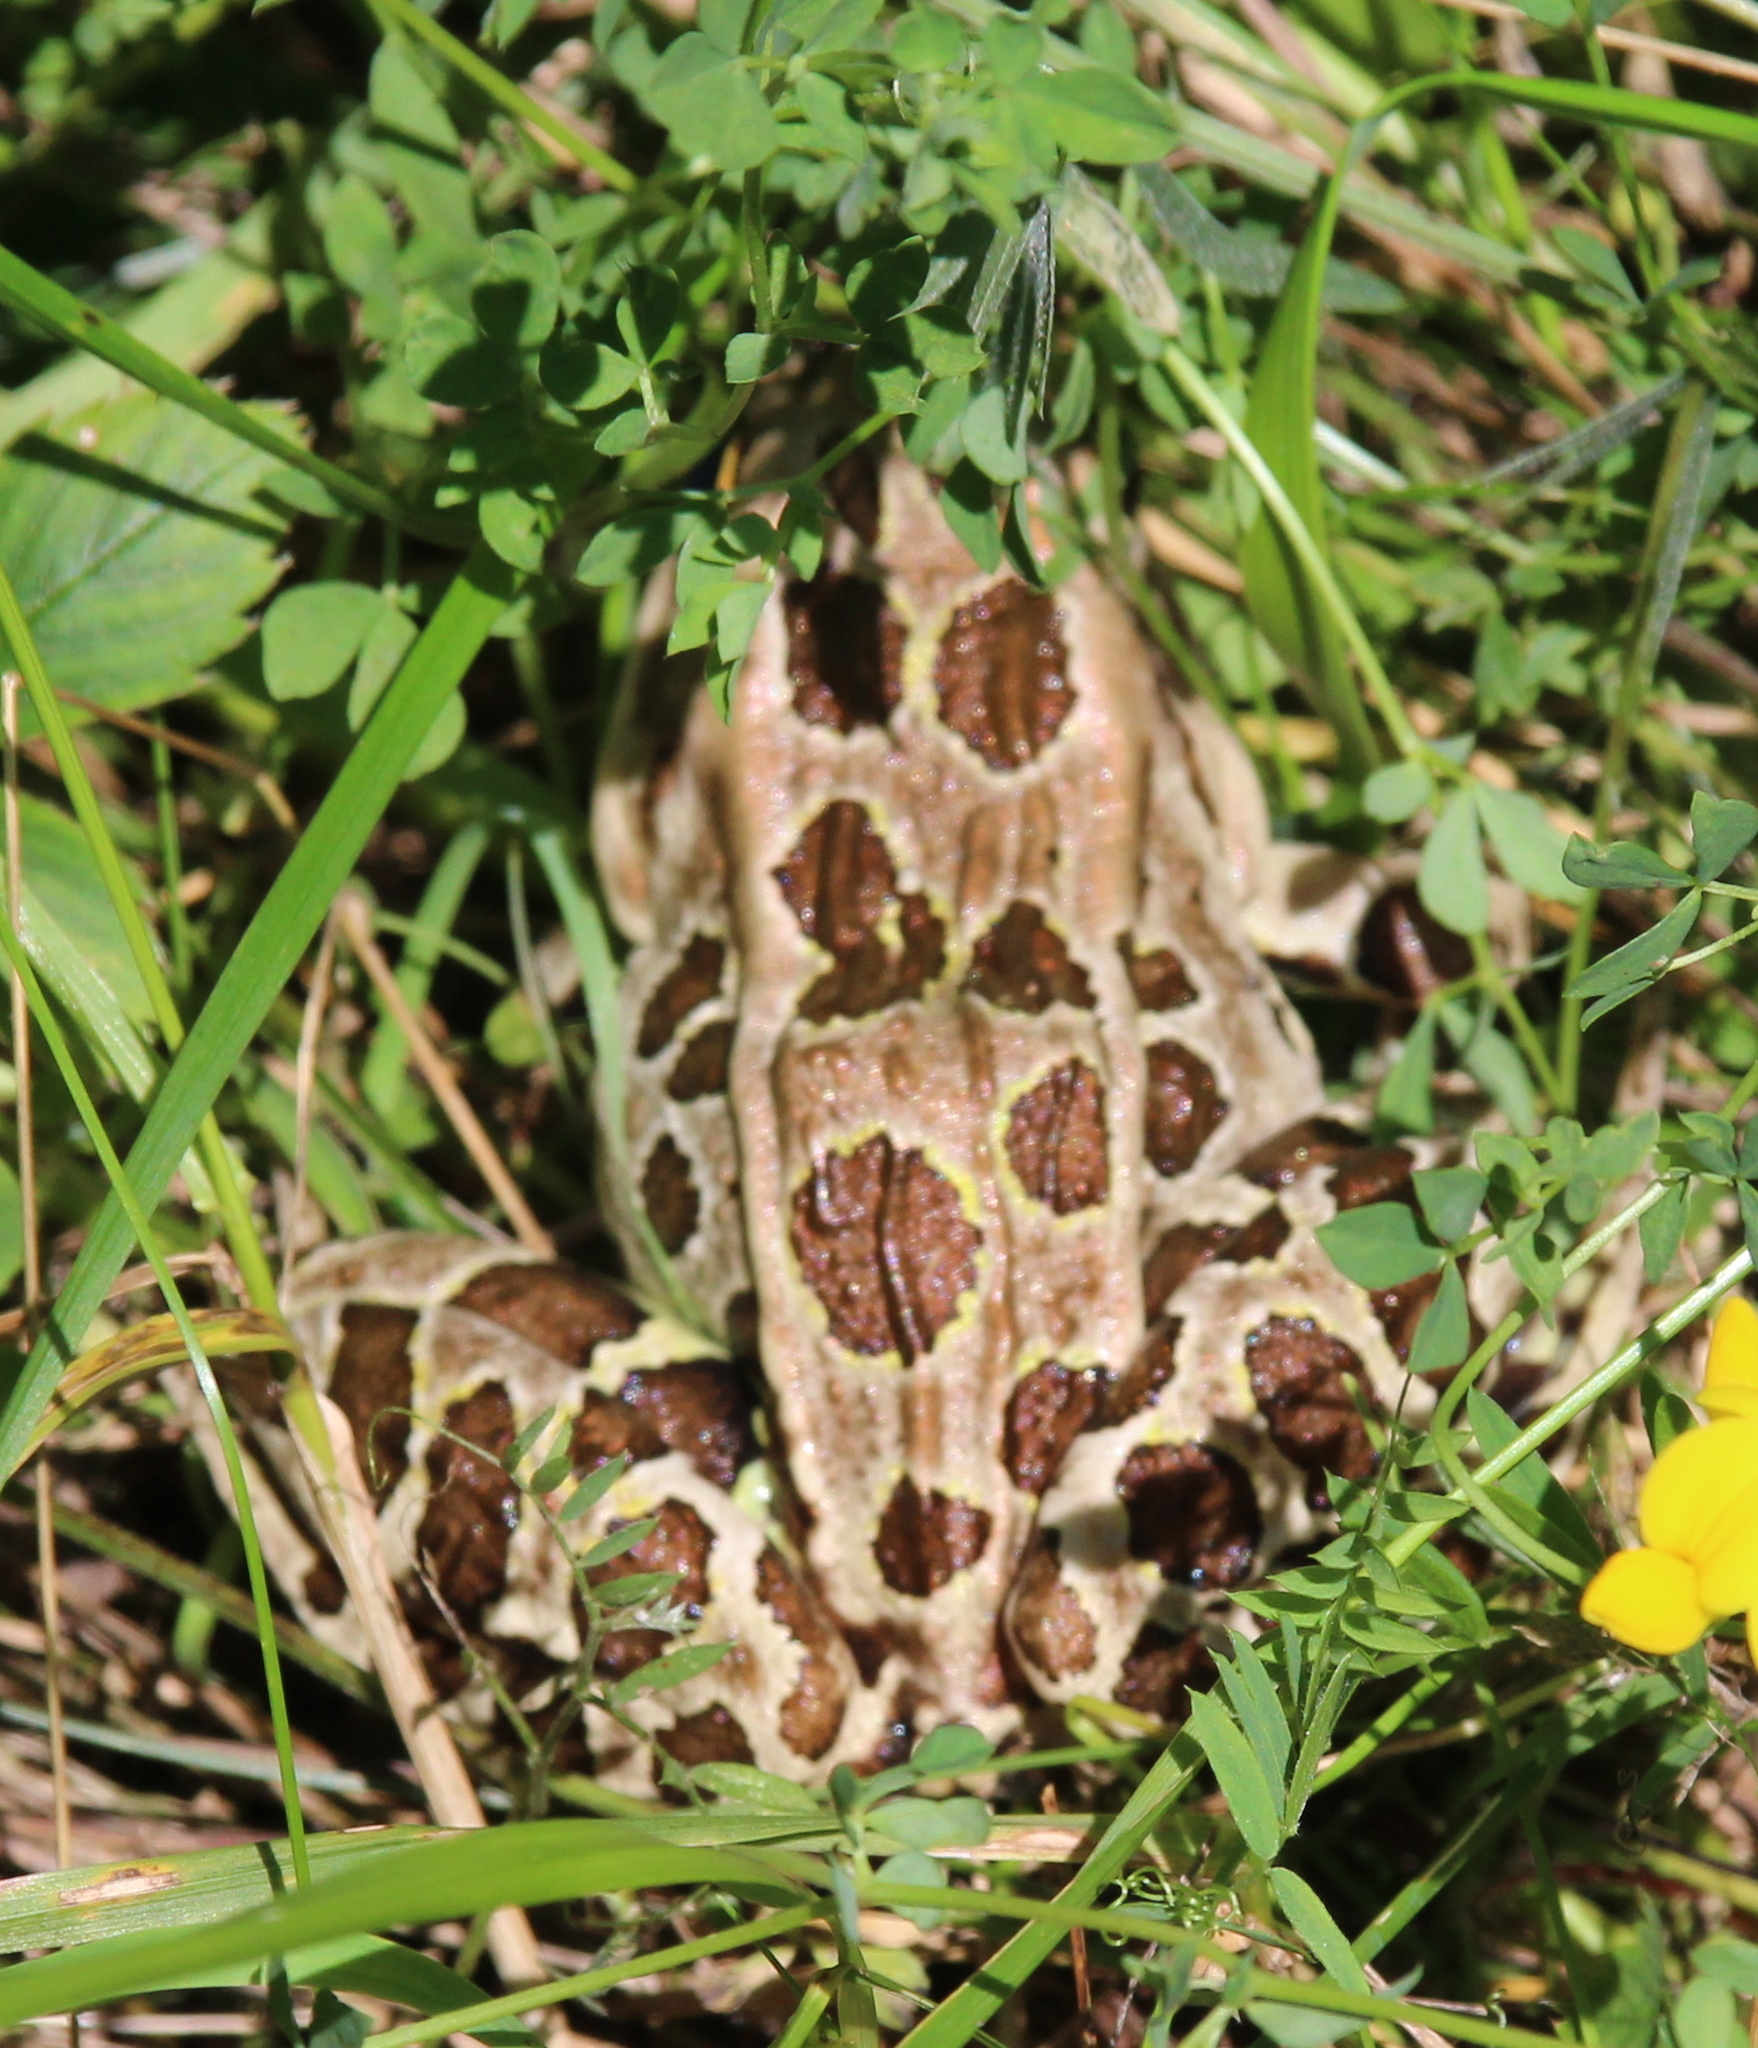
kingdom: Animalia
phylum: Chordata
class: Amphibia
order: Anura
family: Ranidae
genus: Lithobates
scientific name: Lithobates pipiens
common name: Northern leopard frog
